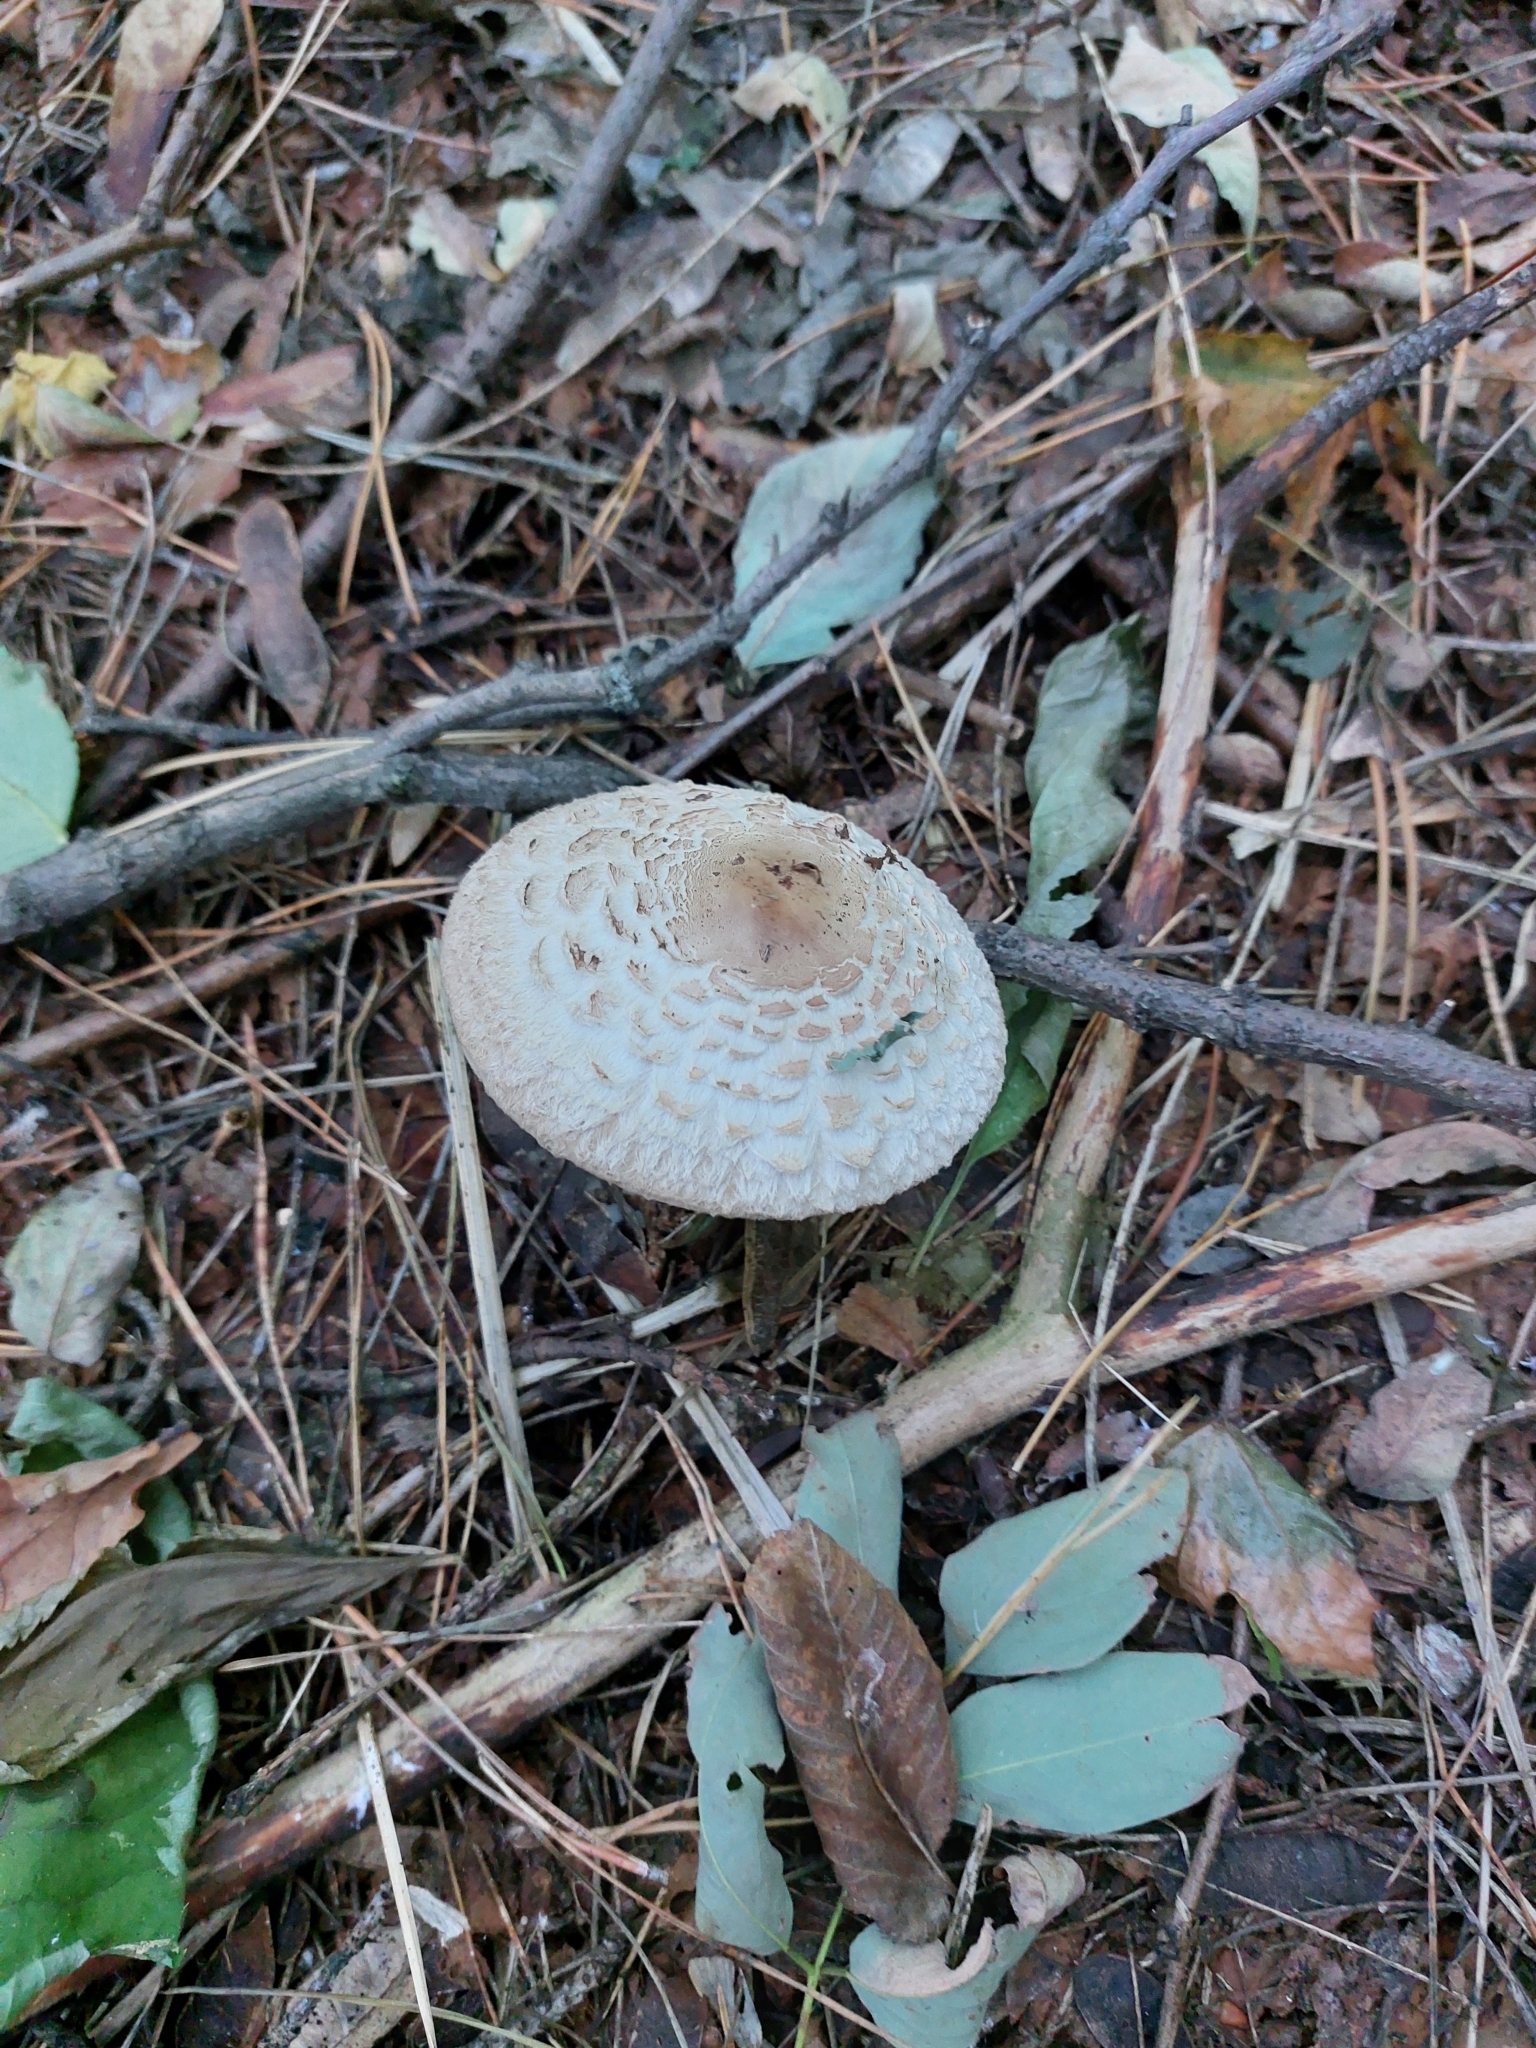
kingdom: Fungi
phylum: Basidiomycota
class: Agaricomycetes
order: Agaricales
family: Agaricaceae
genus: Chlorophyllum
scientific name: Chlorophyllum rhacodes
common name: Shaggy parasol
